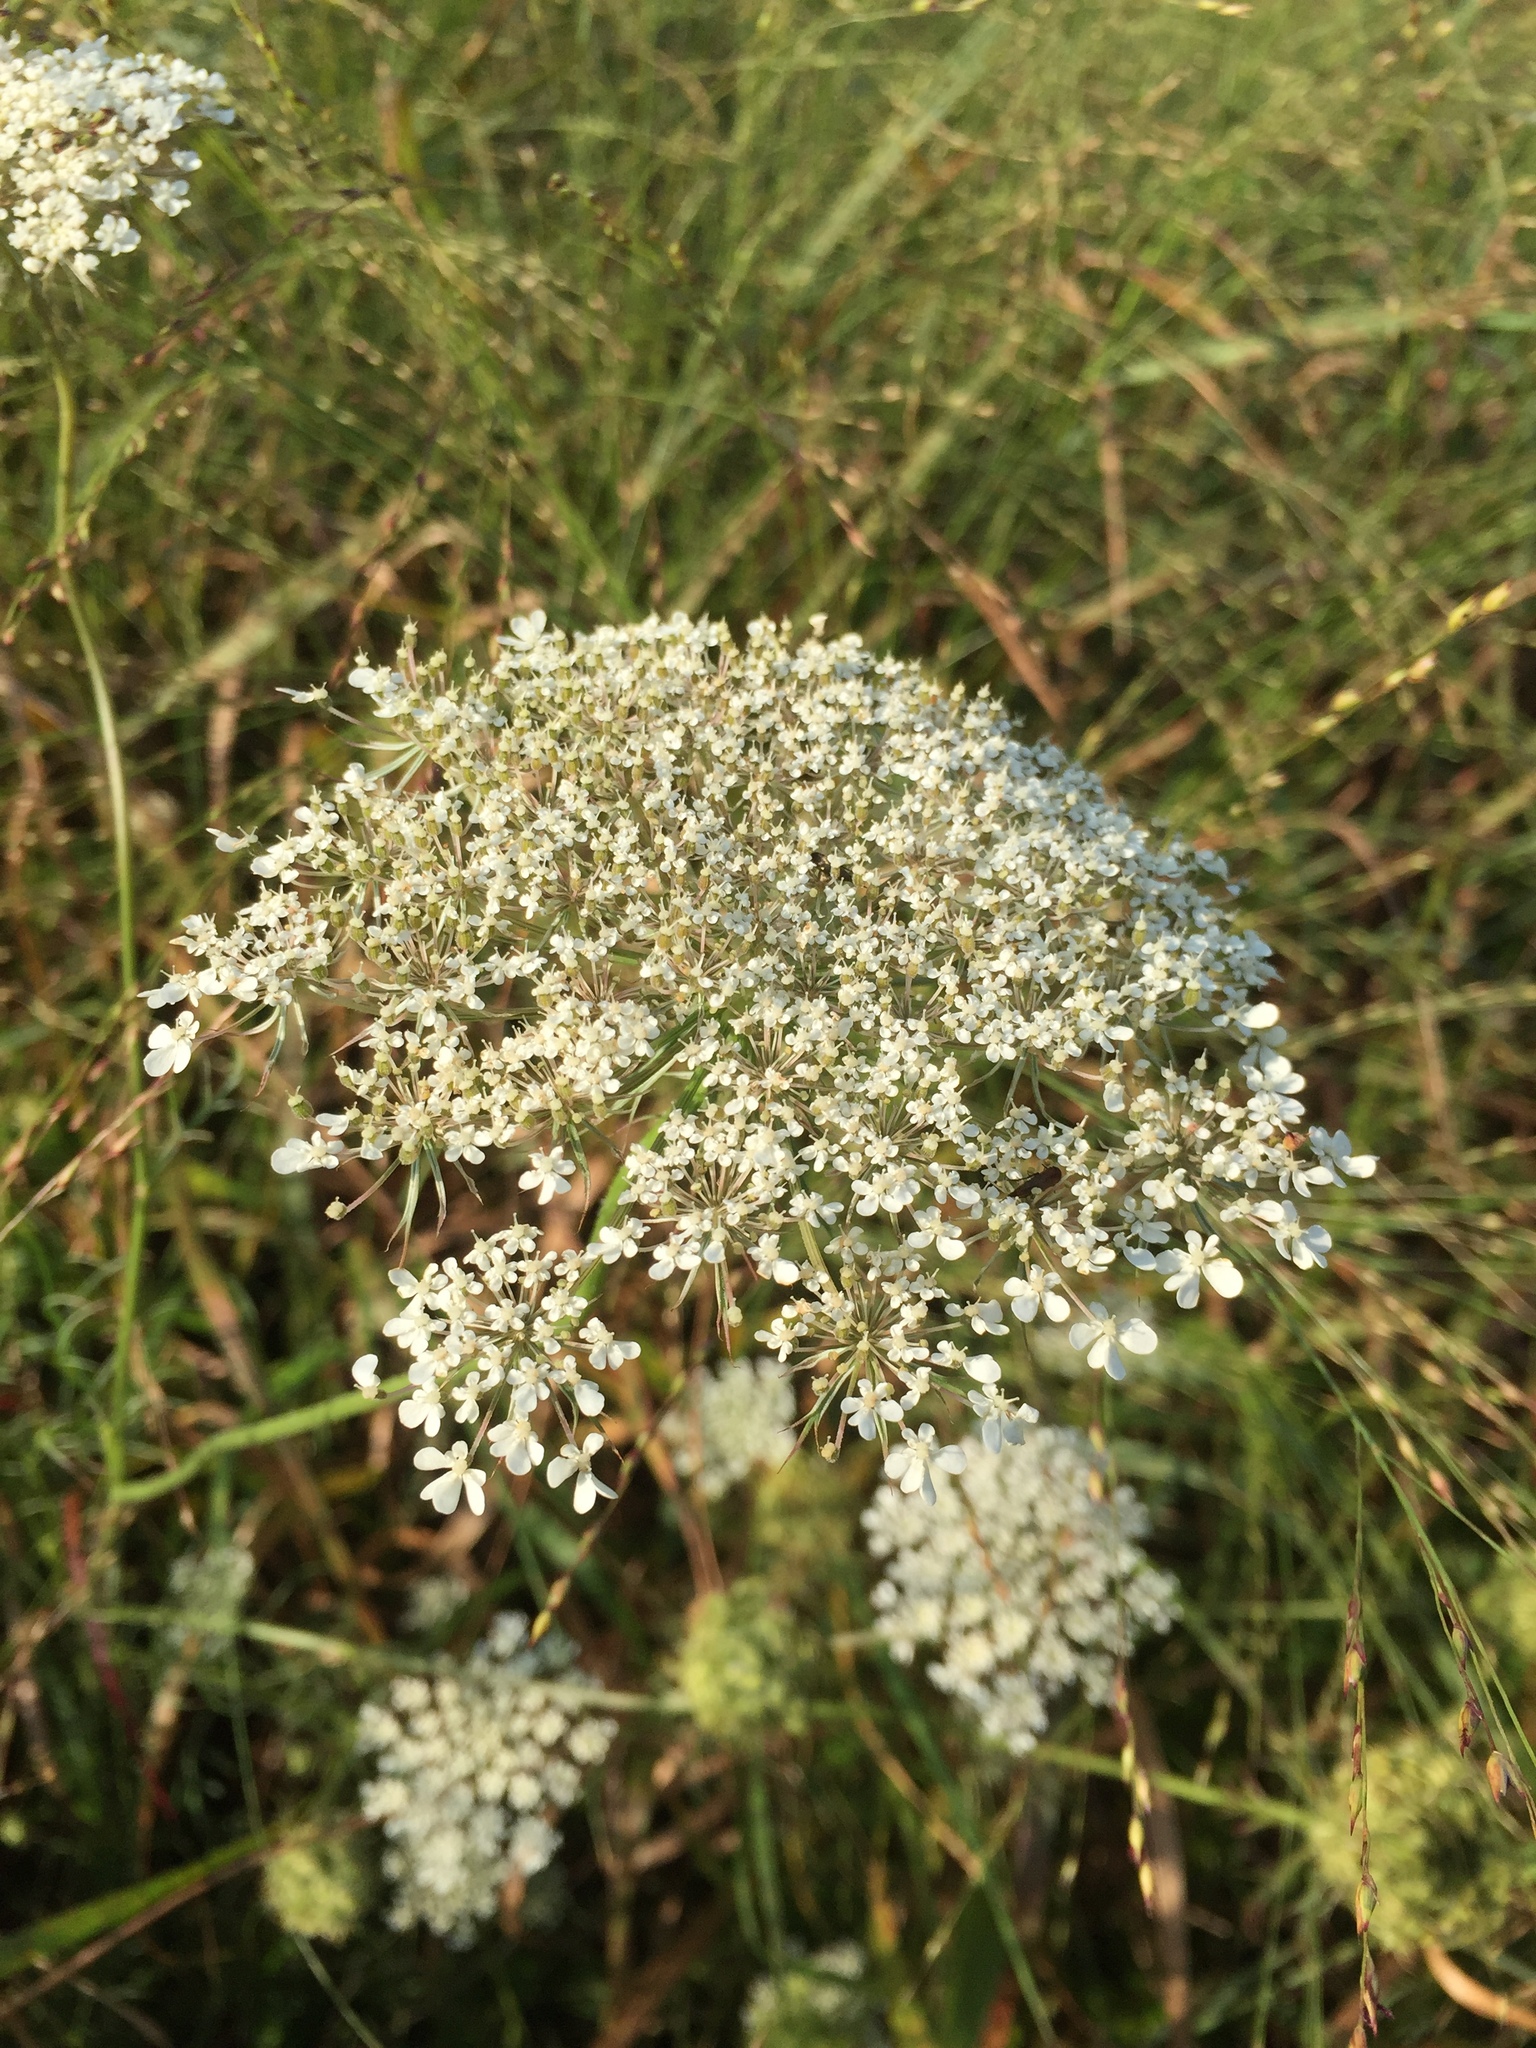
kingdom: Plantae
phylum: Tracheophyta
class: Magnoliopsida
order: Apiales
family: Apiaceae
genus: Daucus
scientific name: Daucus carota
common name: Wild carrot
